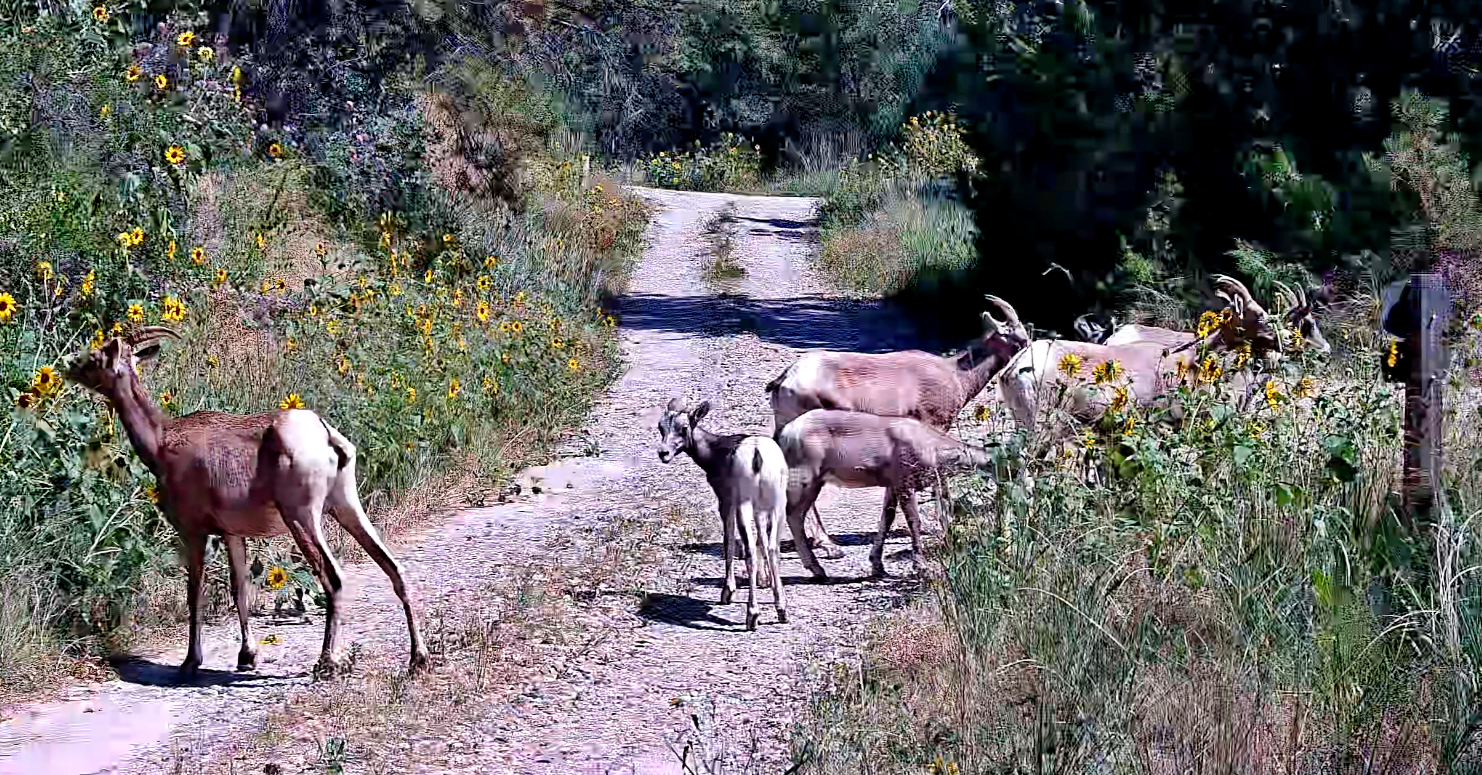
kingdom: Animalia
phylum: Chordata
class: Mammalia
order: Artiodactyla
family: Bovidae
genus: Ovis
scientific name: Ovis canadensis
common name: Bighorn sheep
